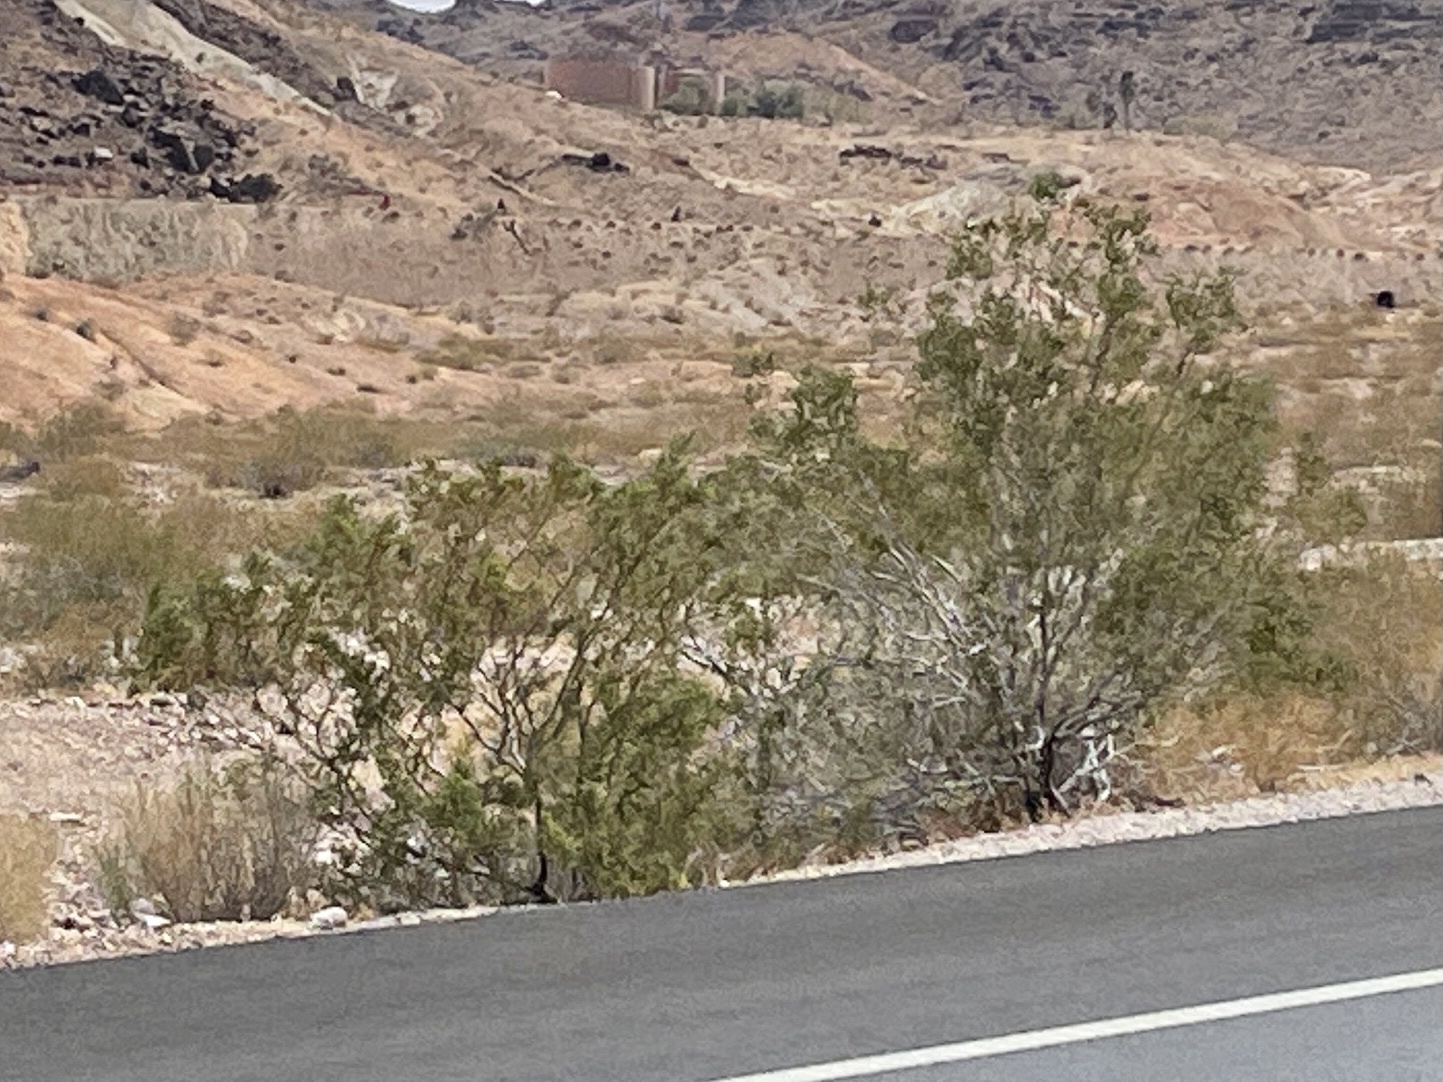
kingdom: Plantae
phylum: Tracheophyta
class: Magnoliopsida
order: Zygophyllales
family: Zygophyllaceae
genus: Larrea
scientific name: Larrea tridentata
